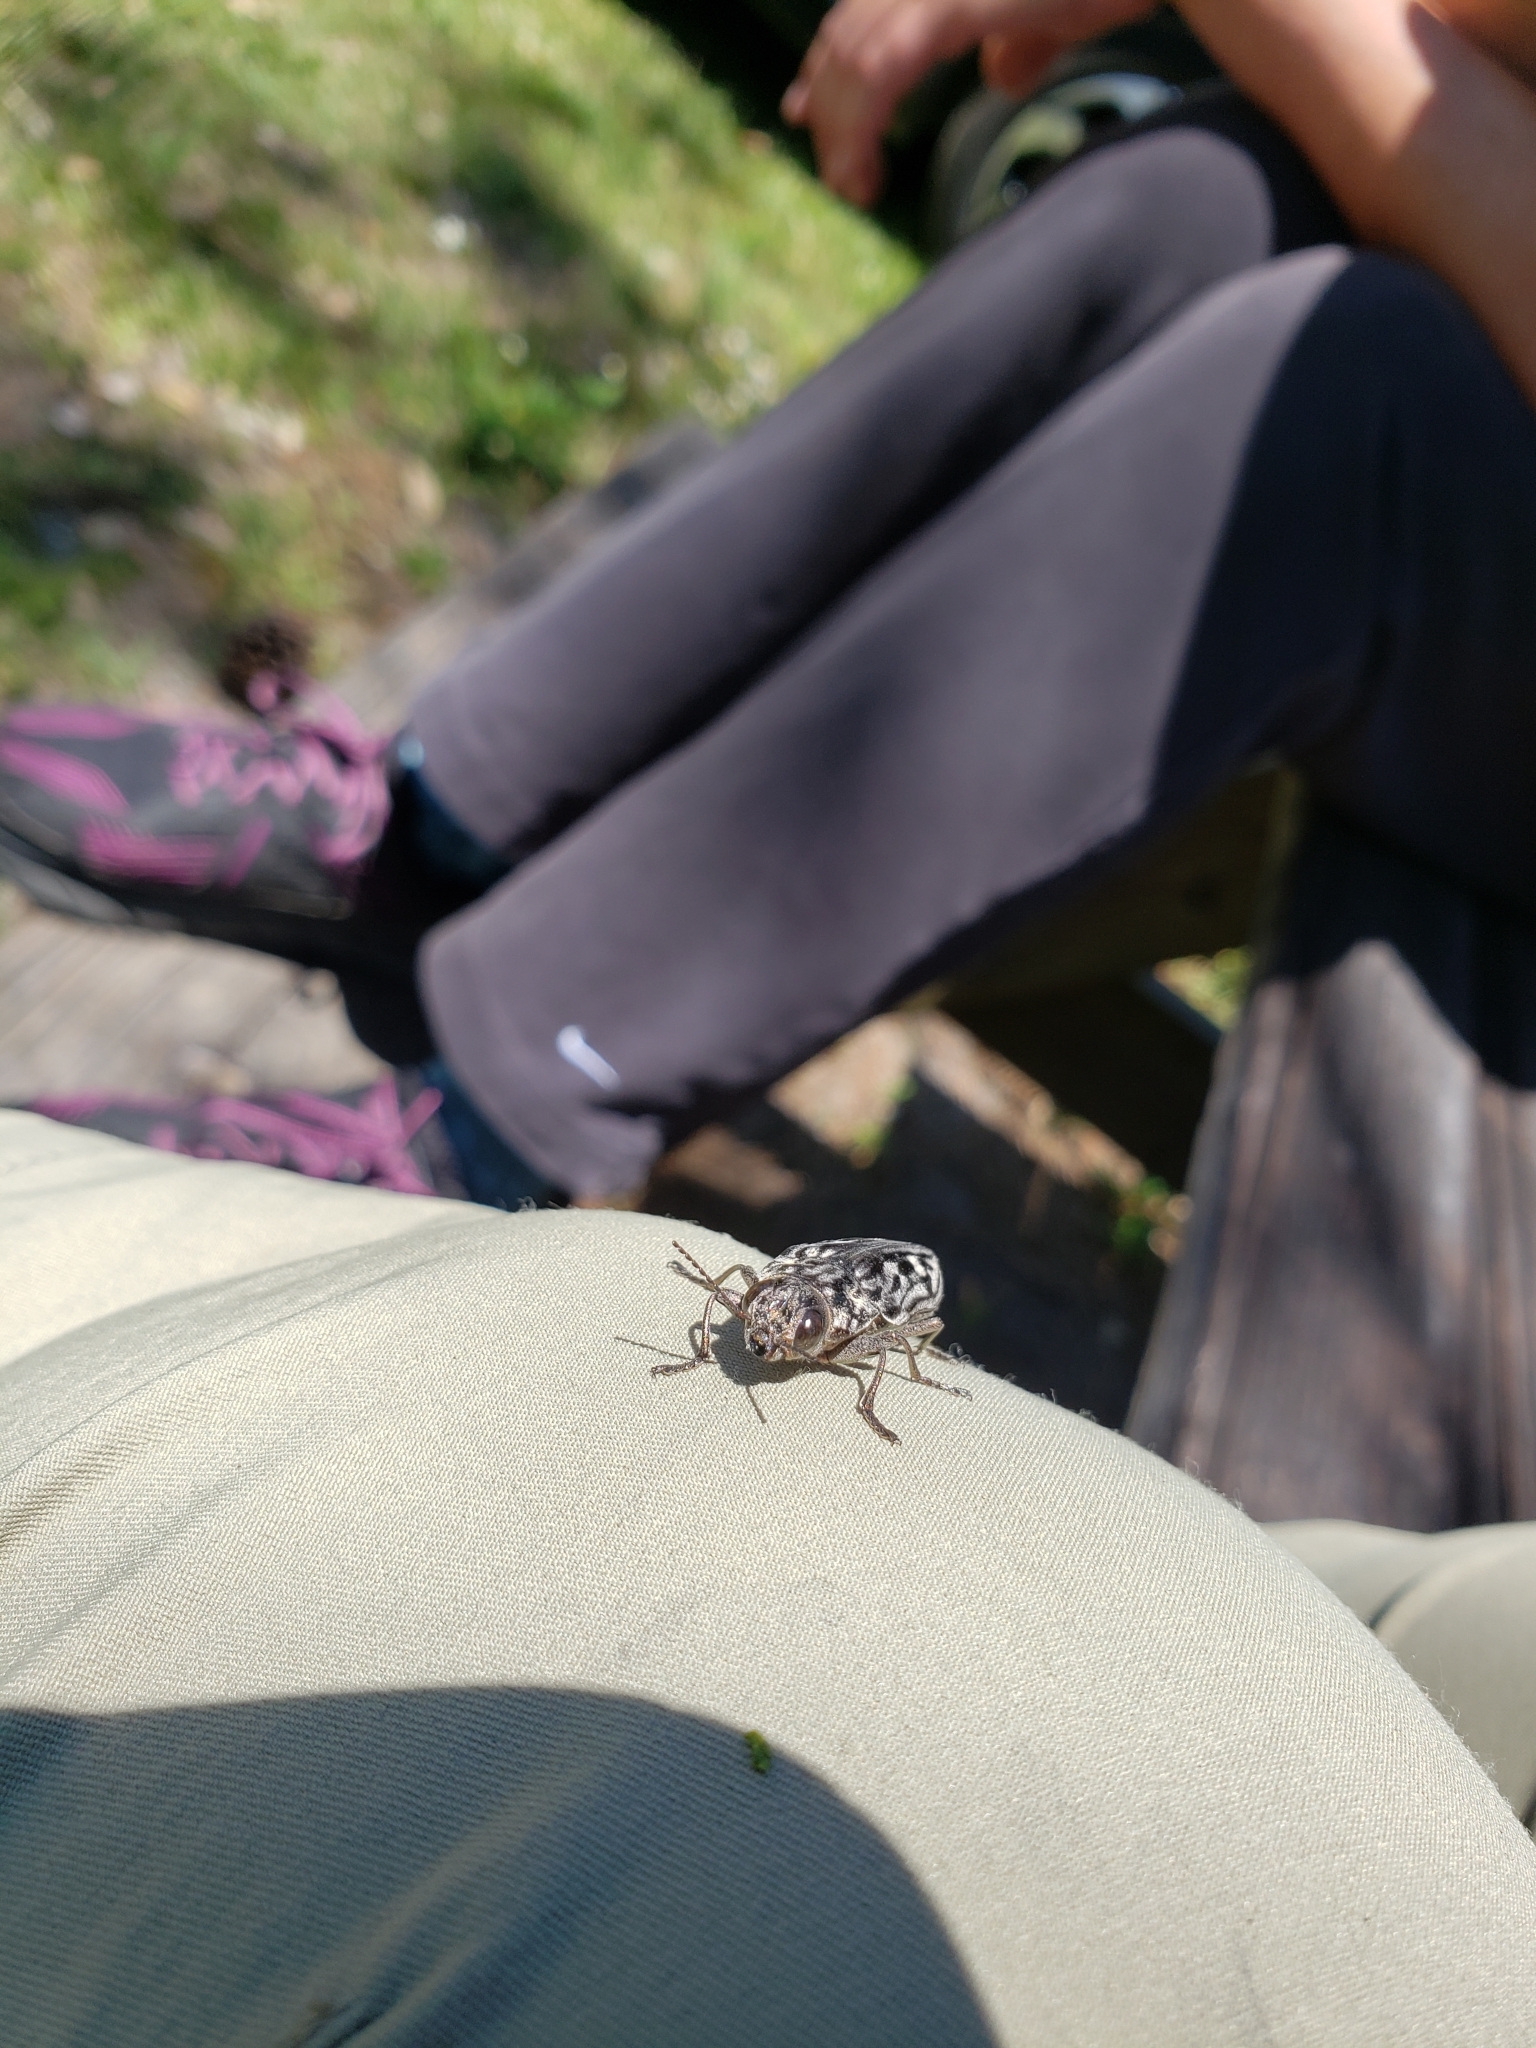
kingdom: Animalia
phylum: Arthropoda
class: Insecta
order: Coleoptera
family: Buprestidae
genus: Chalcophora
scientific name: Chalcophora virginiensis
